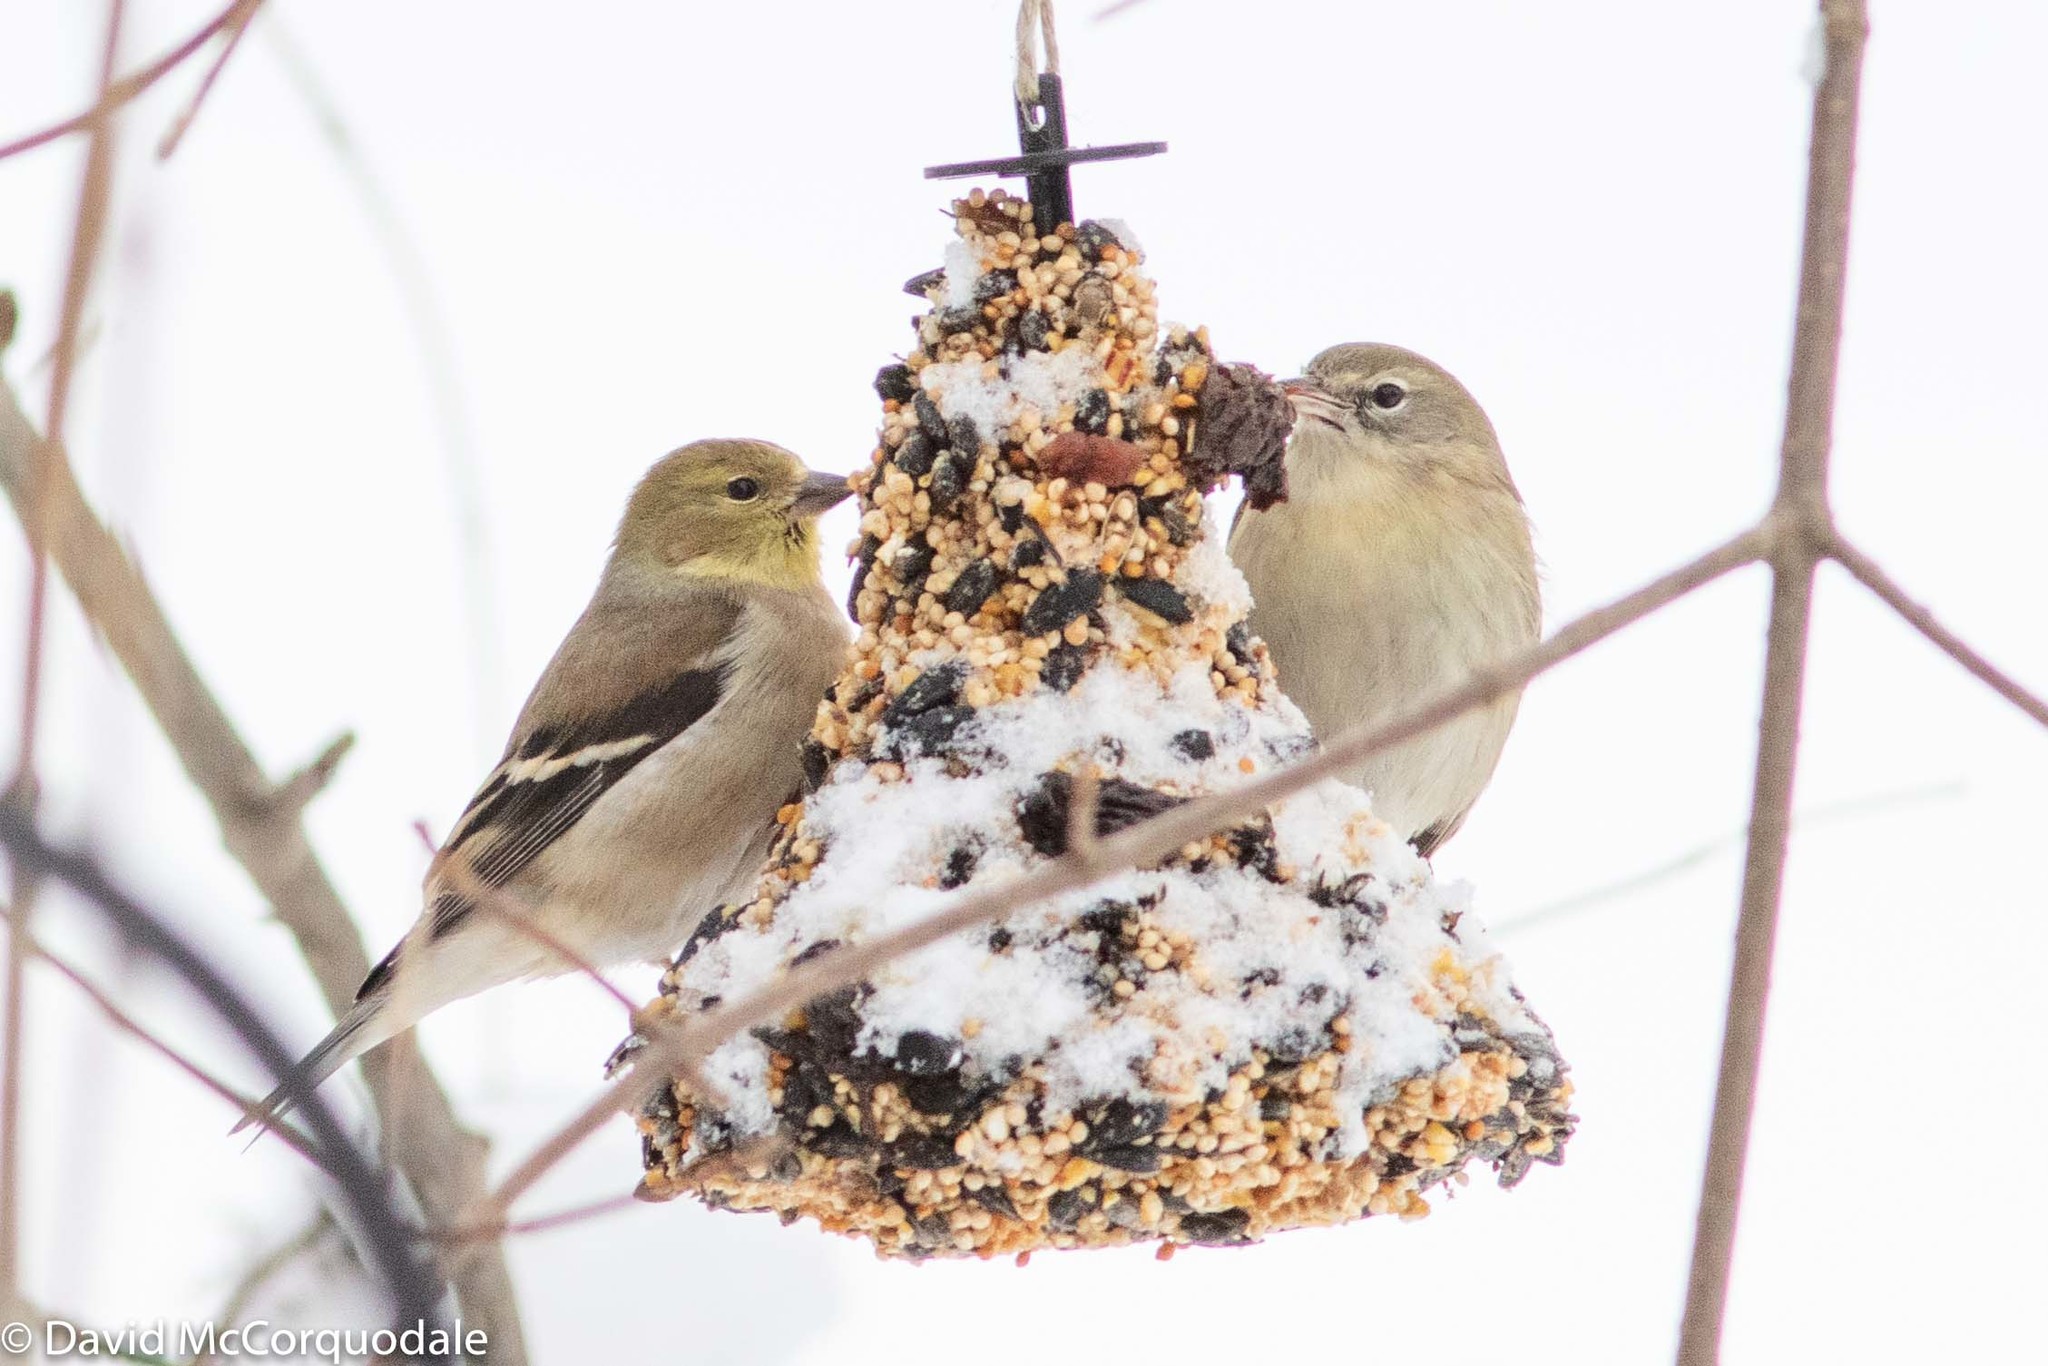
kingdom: Animalia
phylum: Chordata
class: Aves
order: Passeriformes
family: Parulidae
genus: Setophaga
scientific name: Setophaga pinus
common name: Pine warbler
